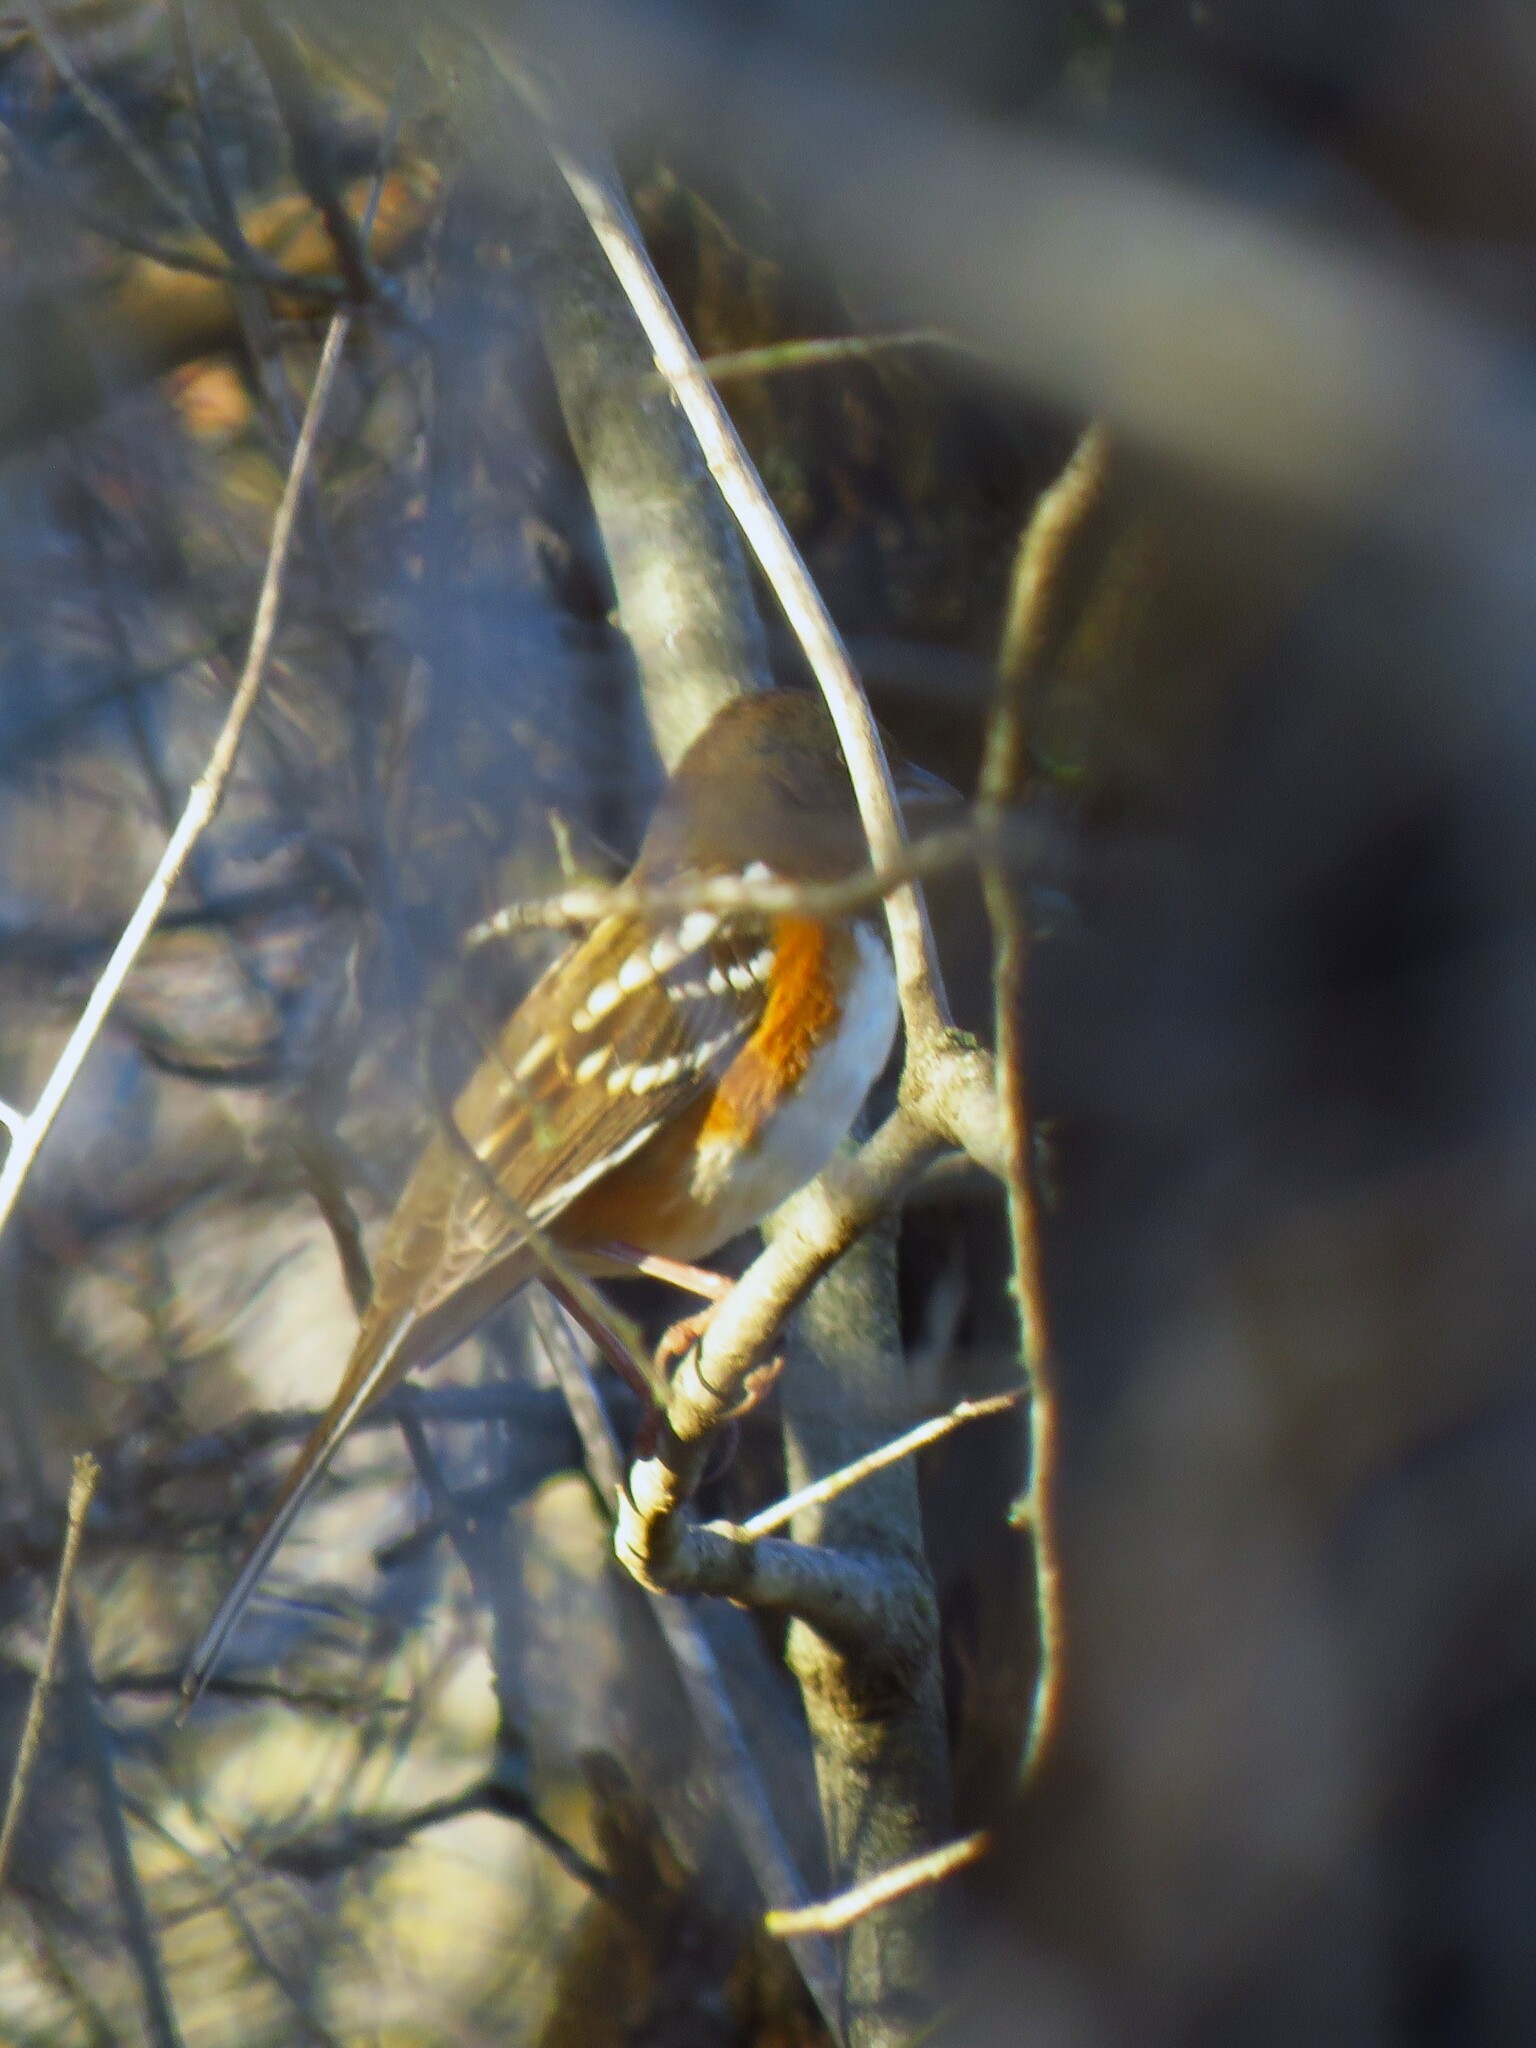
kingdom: Animalia
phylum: Chordata
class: Aves
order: Passeriformes
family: Passerellidae
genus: Pipilo
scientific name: Pipilo maculatus
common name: Spotted towhee
